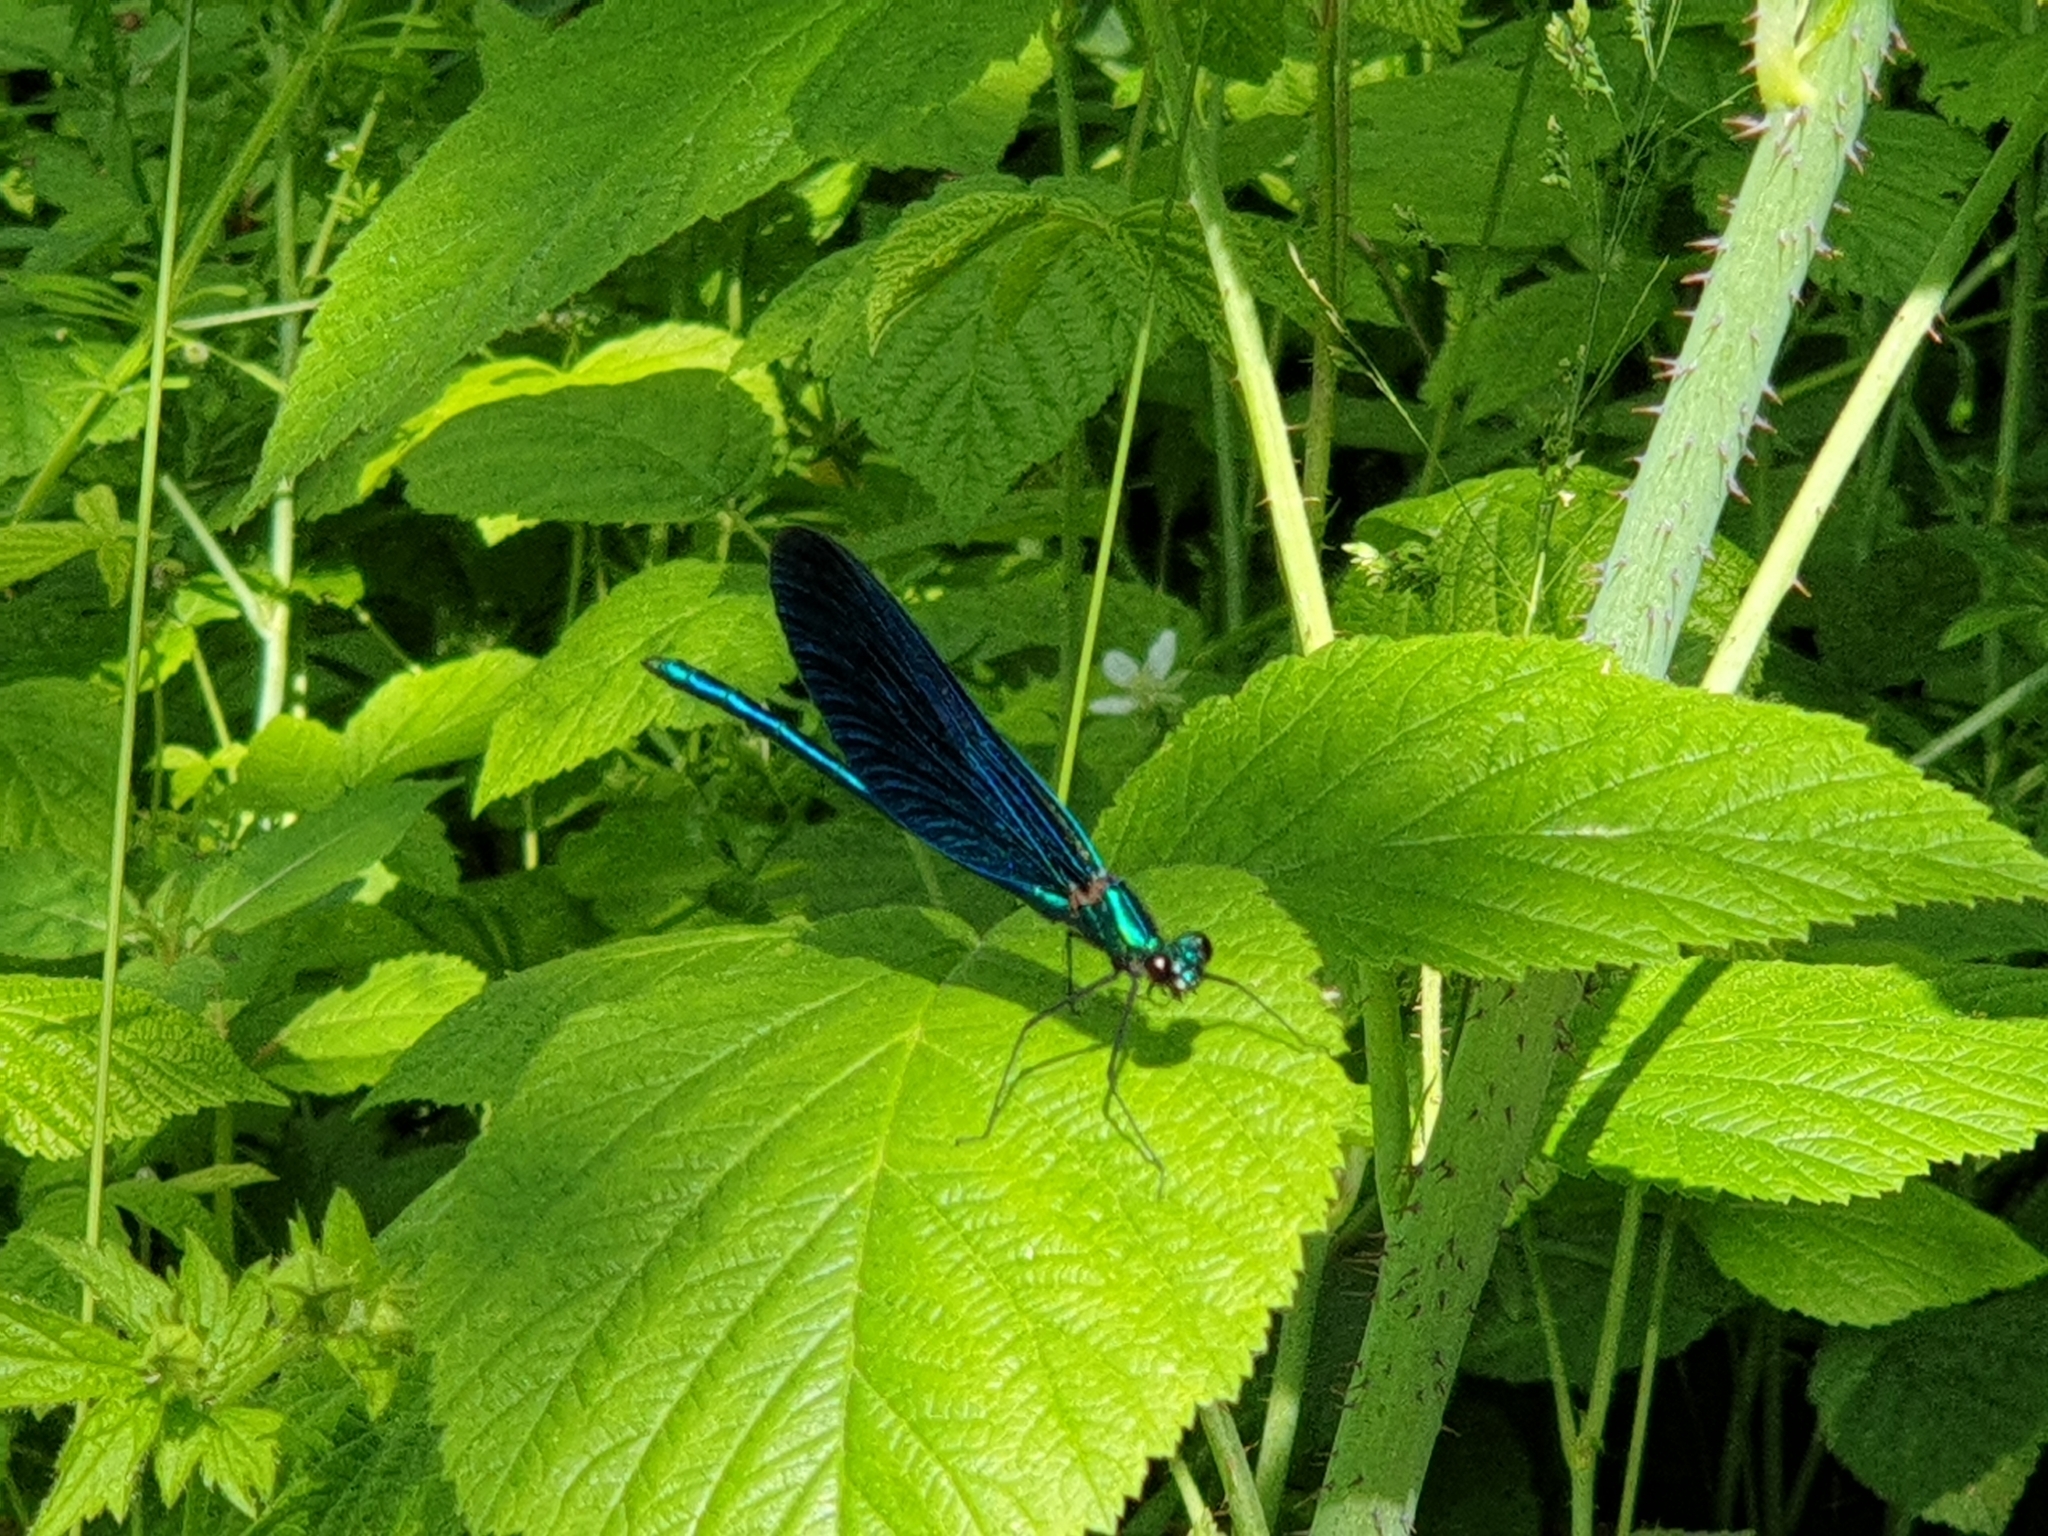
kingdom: Animalia
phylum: Arthropoda
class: Insecta
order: Odonata
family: Calopterygidae
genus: Calopteryx
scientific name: Calopteryx virgo
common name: Beautiful demoiselle
